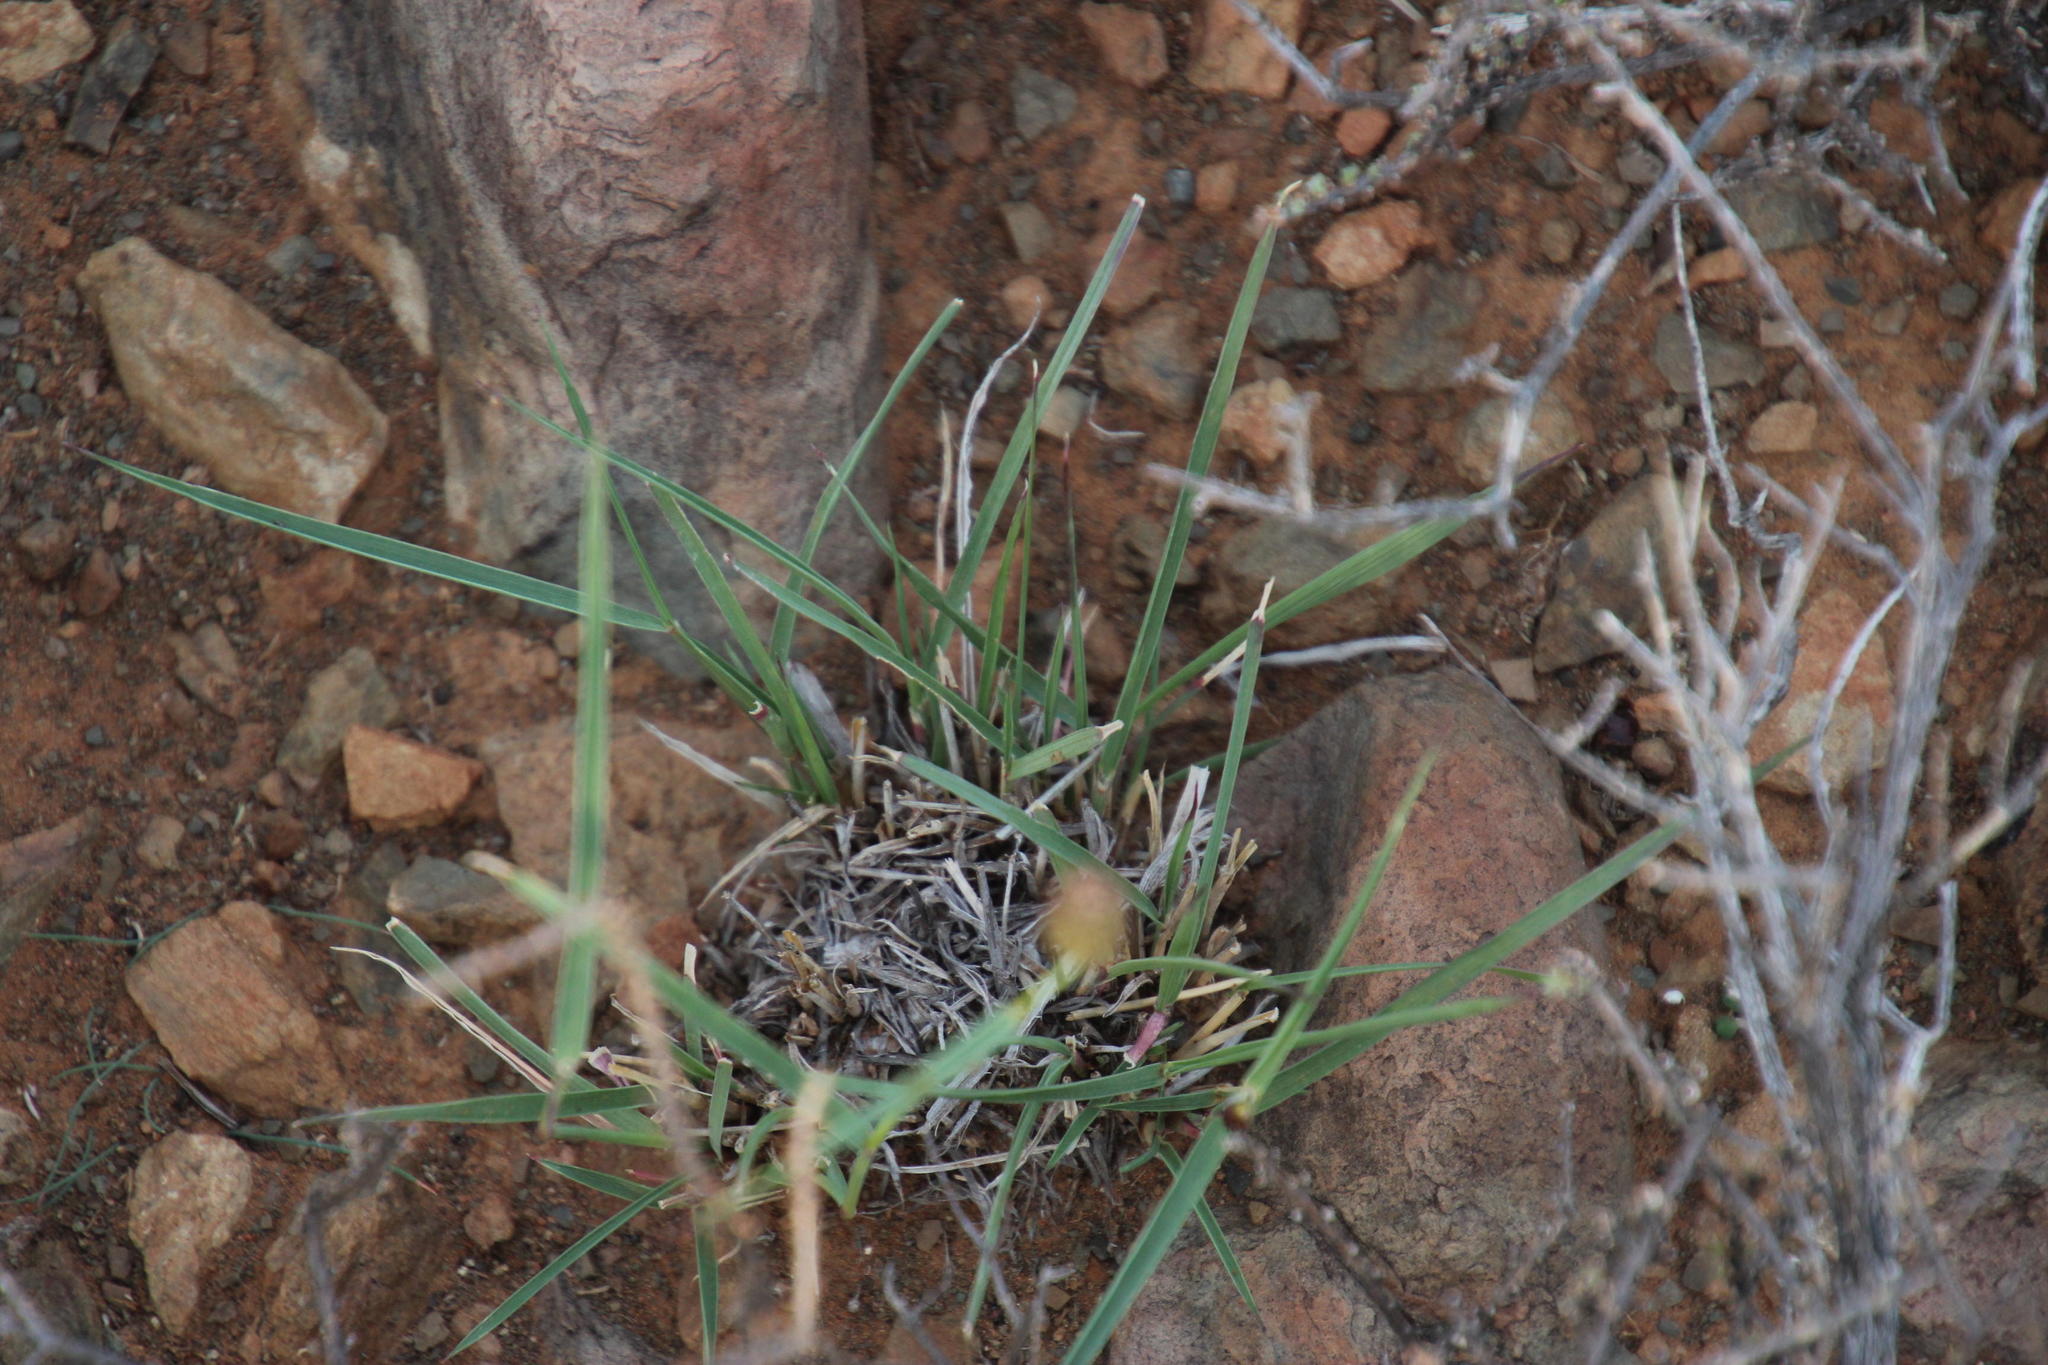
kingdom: Plantae
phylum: Tracheophyta
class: Liliopsida
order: Poales
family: Poaceae
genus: Fingerhuthia
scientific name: Fingerhuthia africana
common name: Zulu fescue
